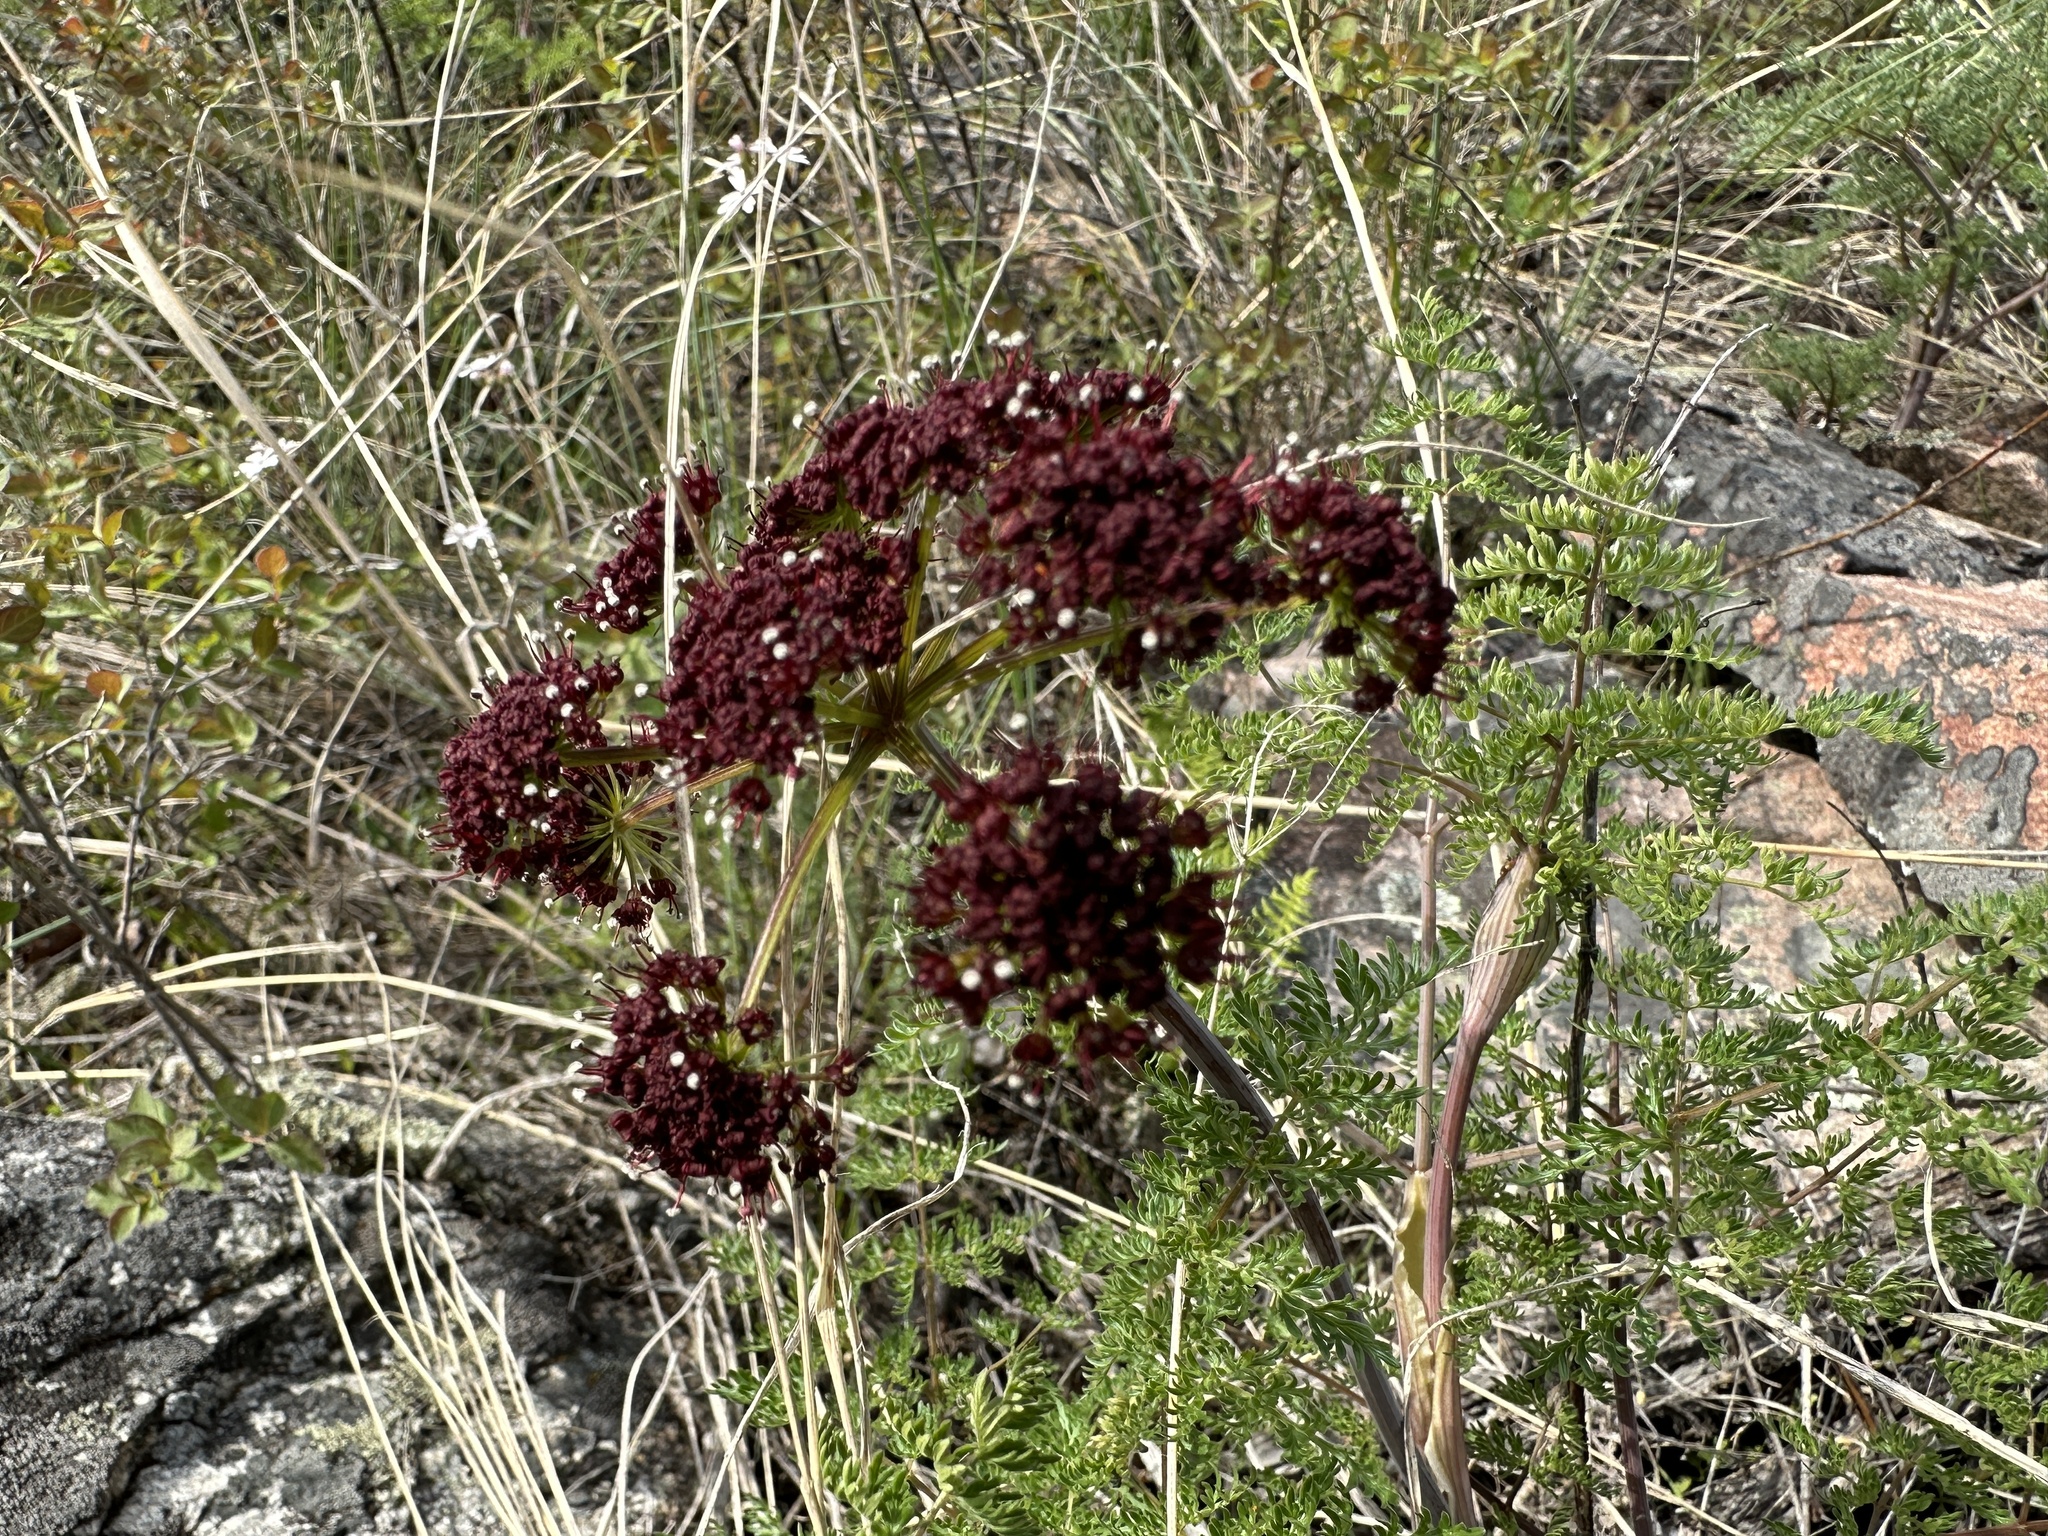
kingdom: Plantae
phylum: Tracheophyta
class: Magnoliopsida
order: Apiales
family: Apiaceae
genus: Lomatium
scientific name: Lomatium multifidum
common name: Carrot-leaved biscuitroot
